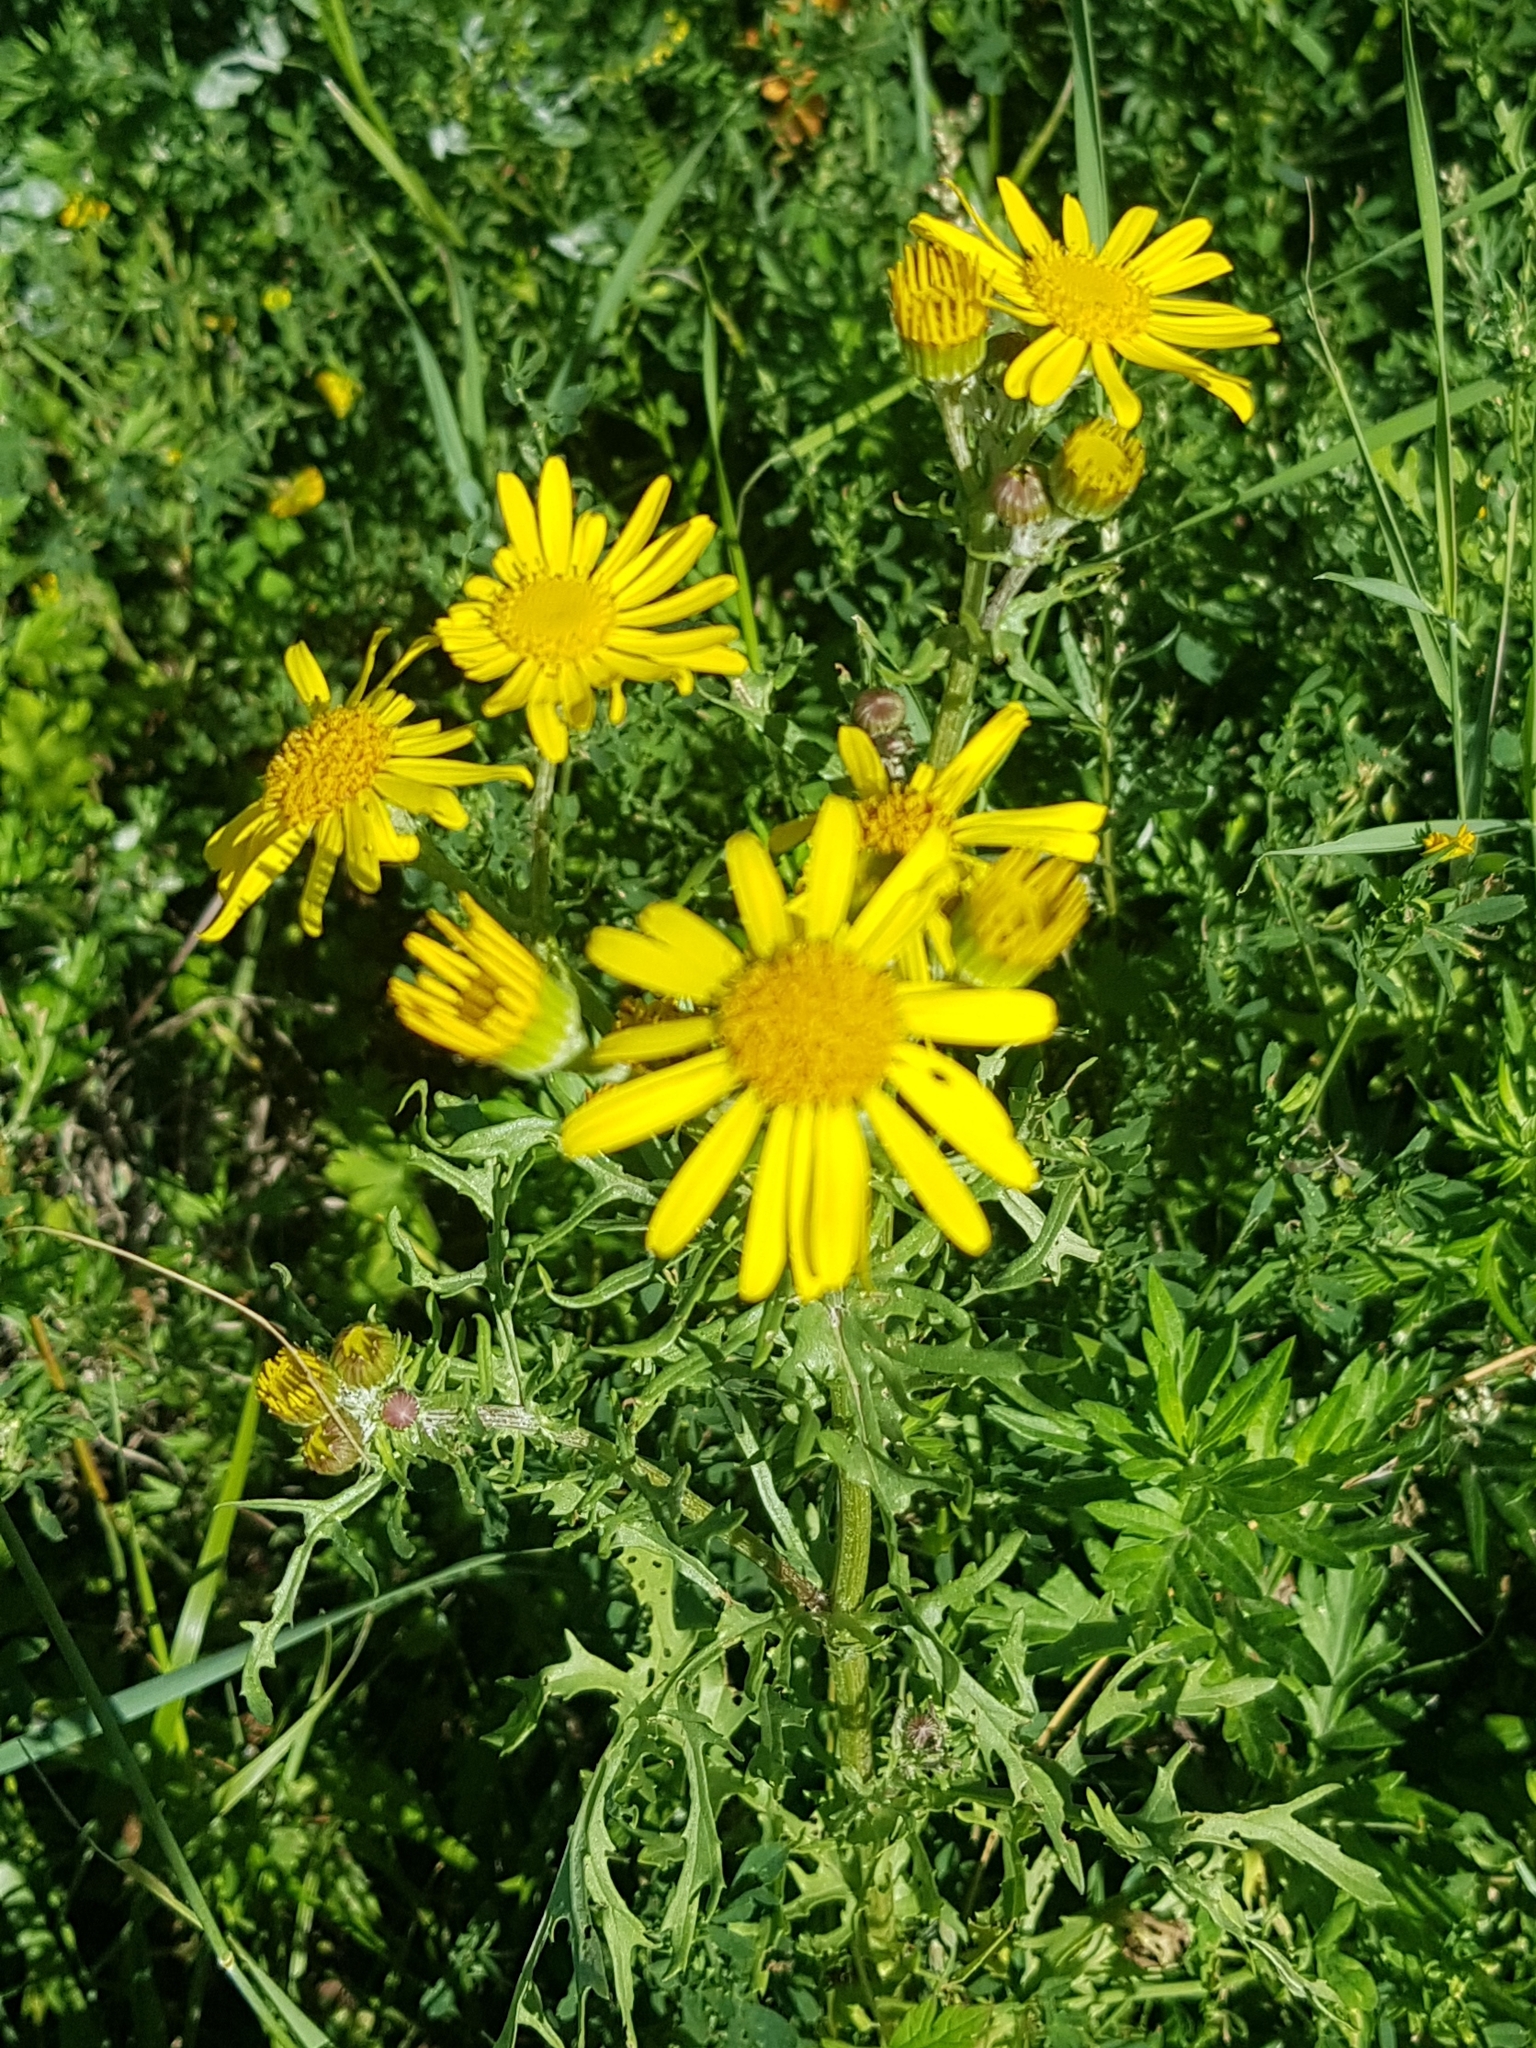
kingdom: Plantae
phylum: Tracheophyta
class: Magnoliopsida
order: Asterales
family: Asteraceae
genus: Jacobaea
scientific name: Jacobaea erucifolia
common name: Hoary ragwort
